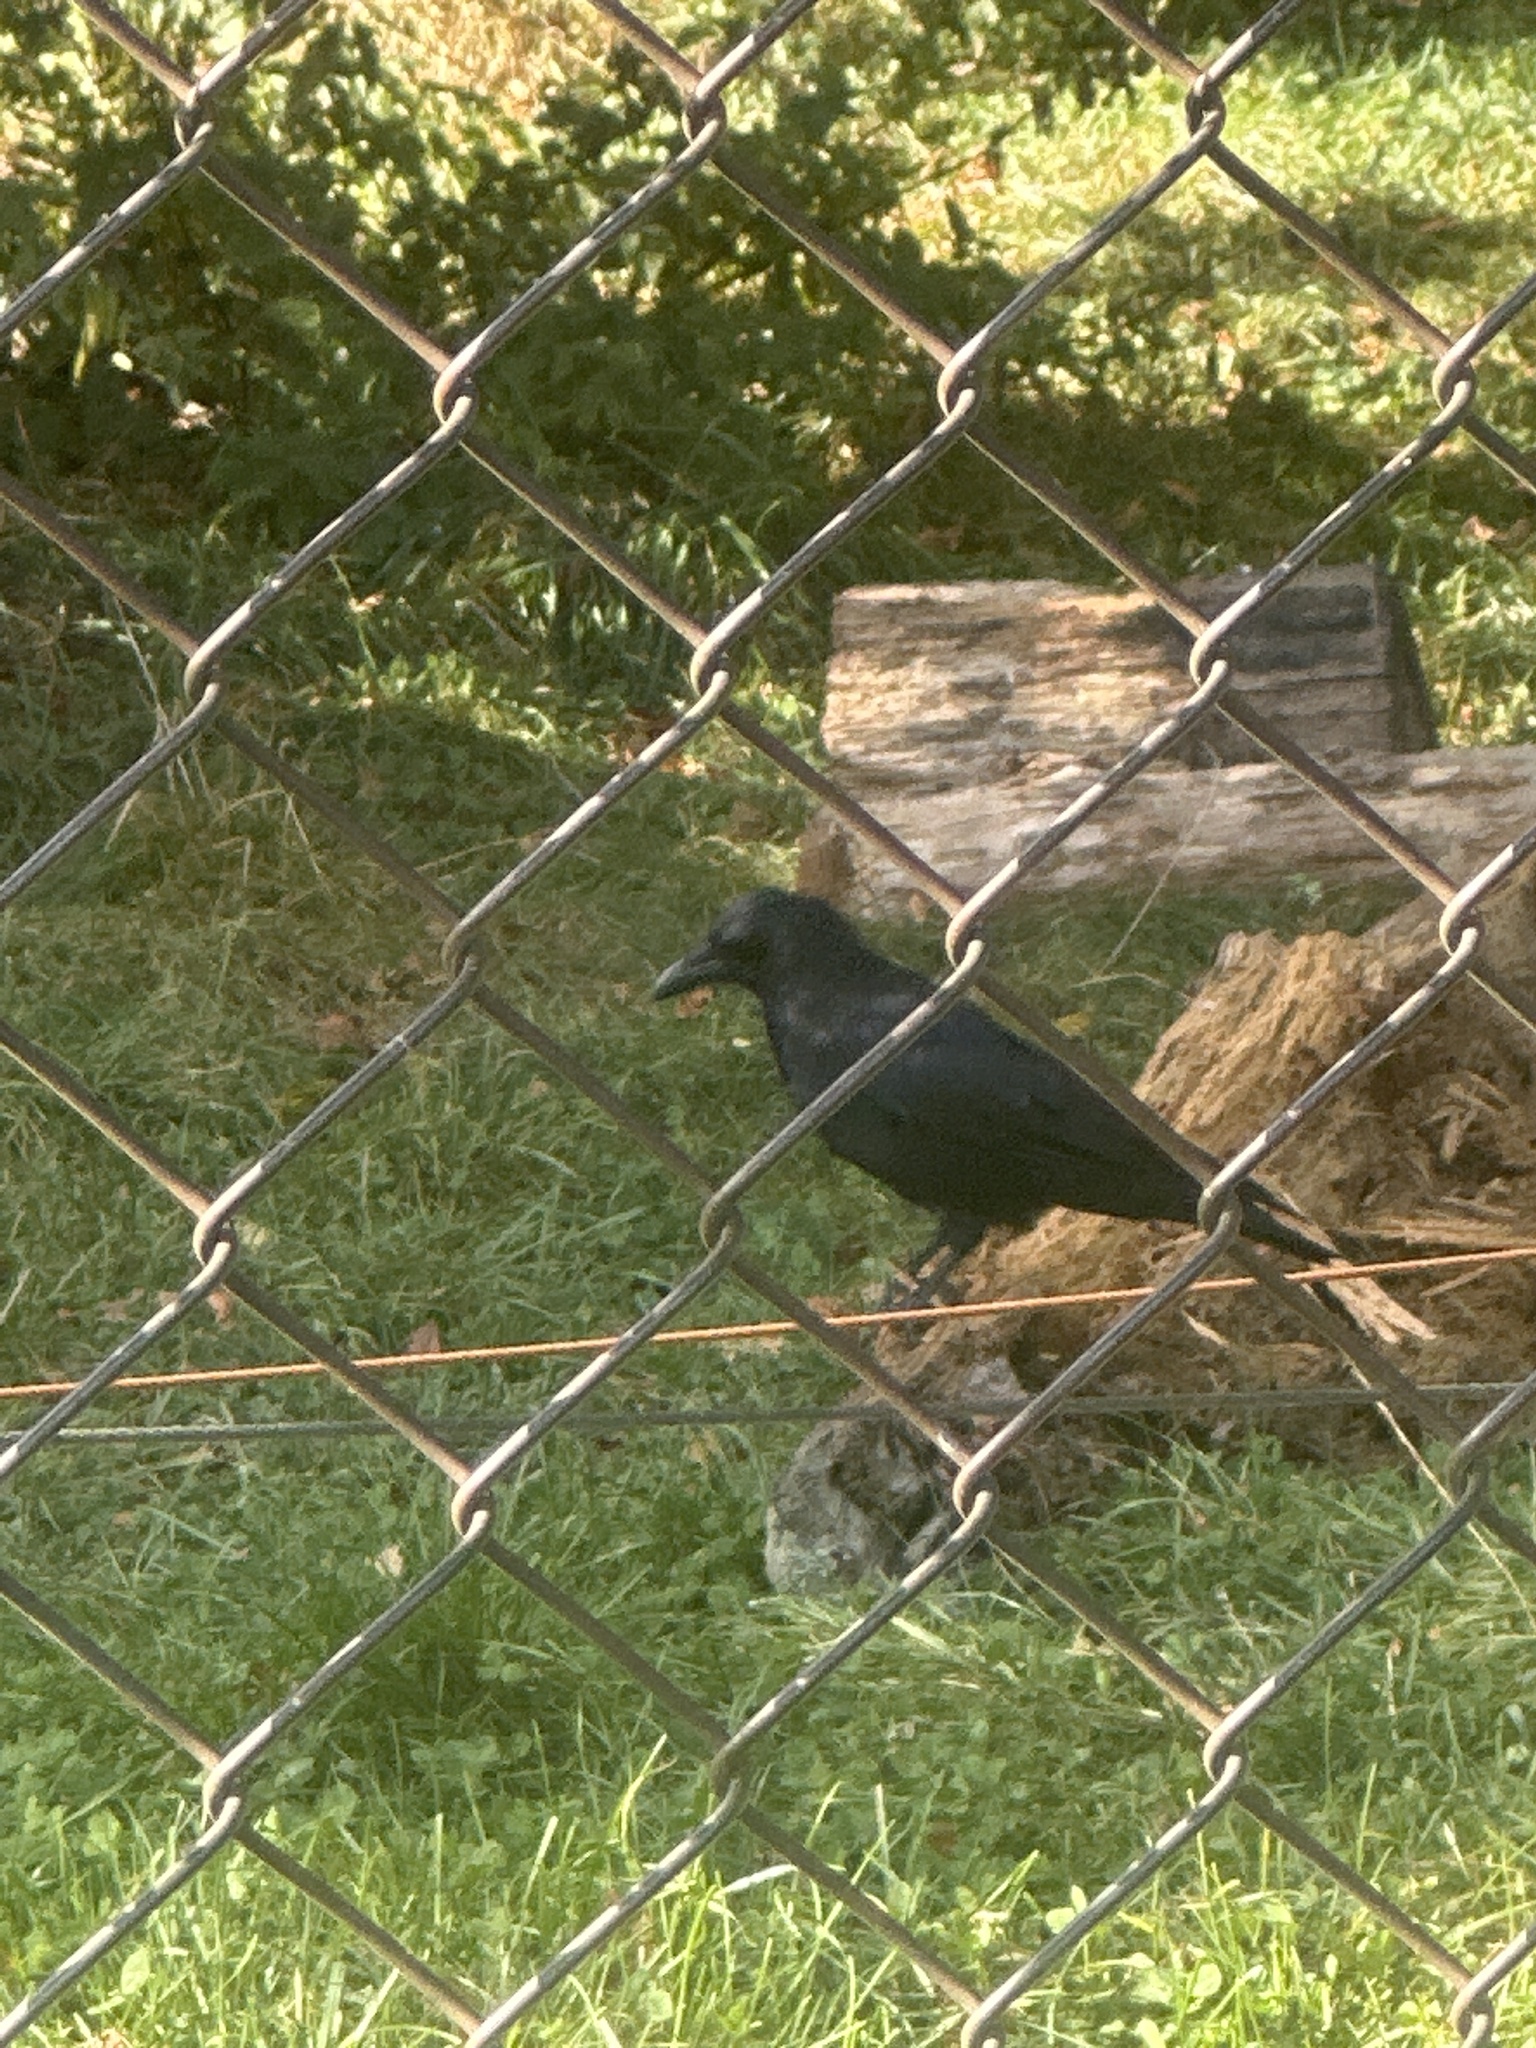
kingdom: Animalia
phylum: Chordata
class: Aves
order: Passeriformes
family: Corvidae
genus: Corvus
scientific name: Corvus corone
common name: Carrion crow
